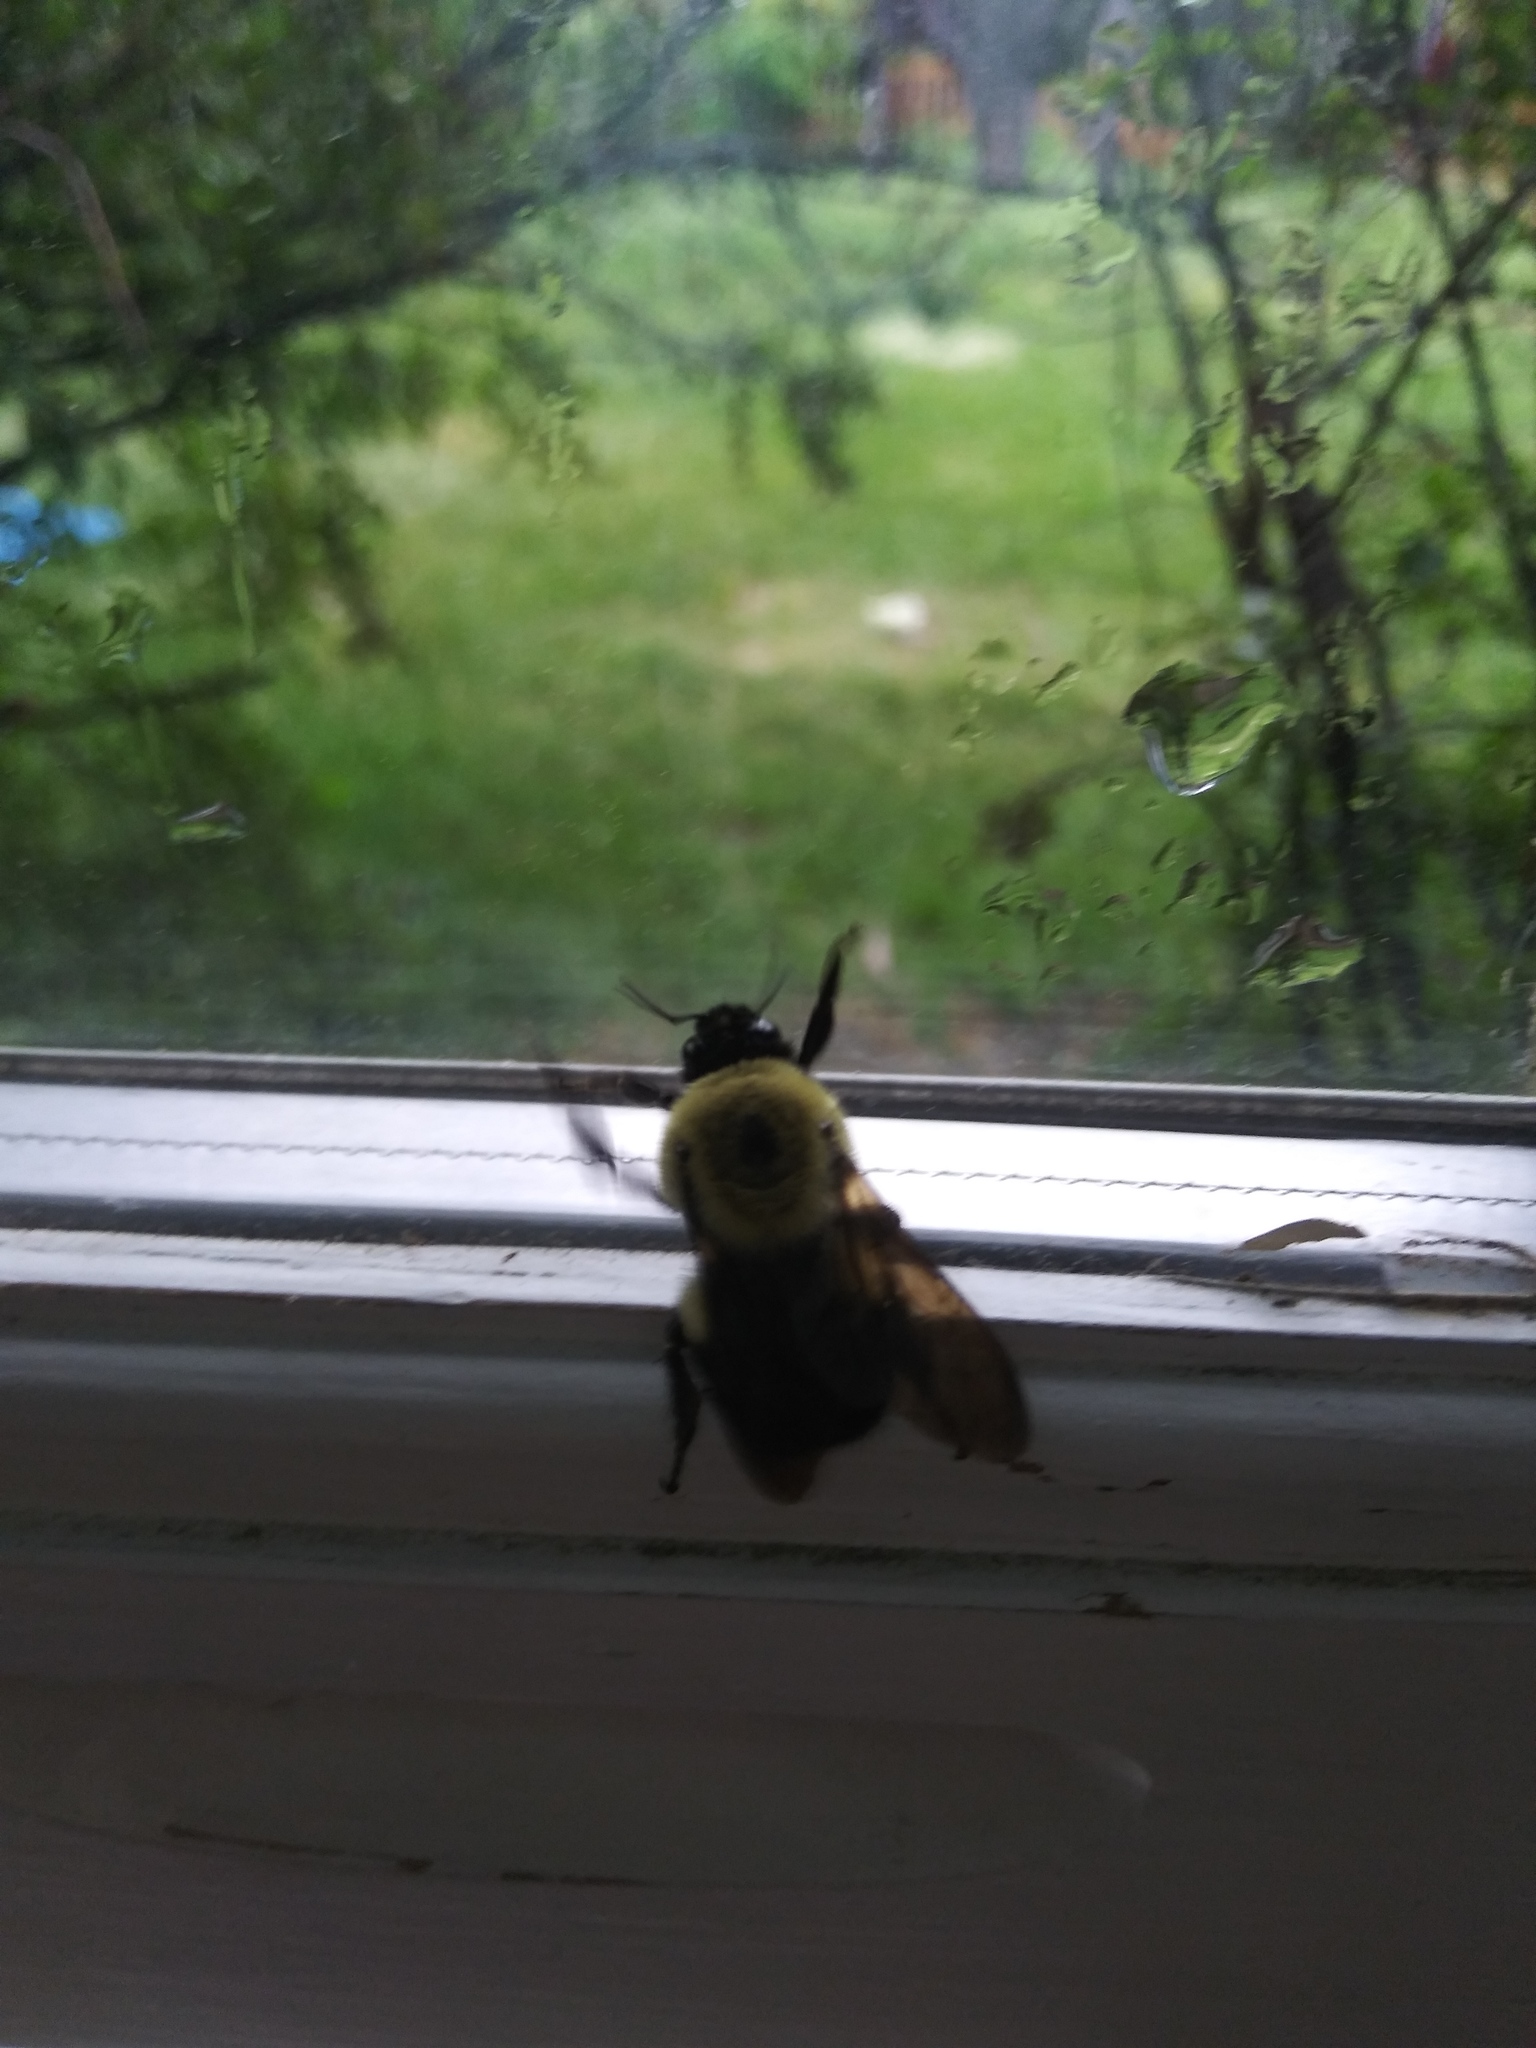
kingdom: Animalia
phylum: Arthropoda
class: Insecta
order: Hymenoptera
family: Apidae
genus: Bombus
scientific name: Bombus griseocollis
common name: Brown-belted bumble bee
